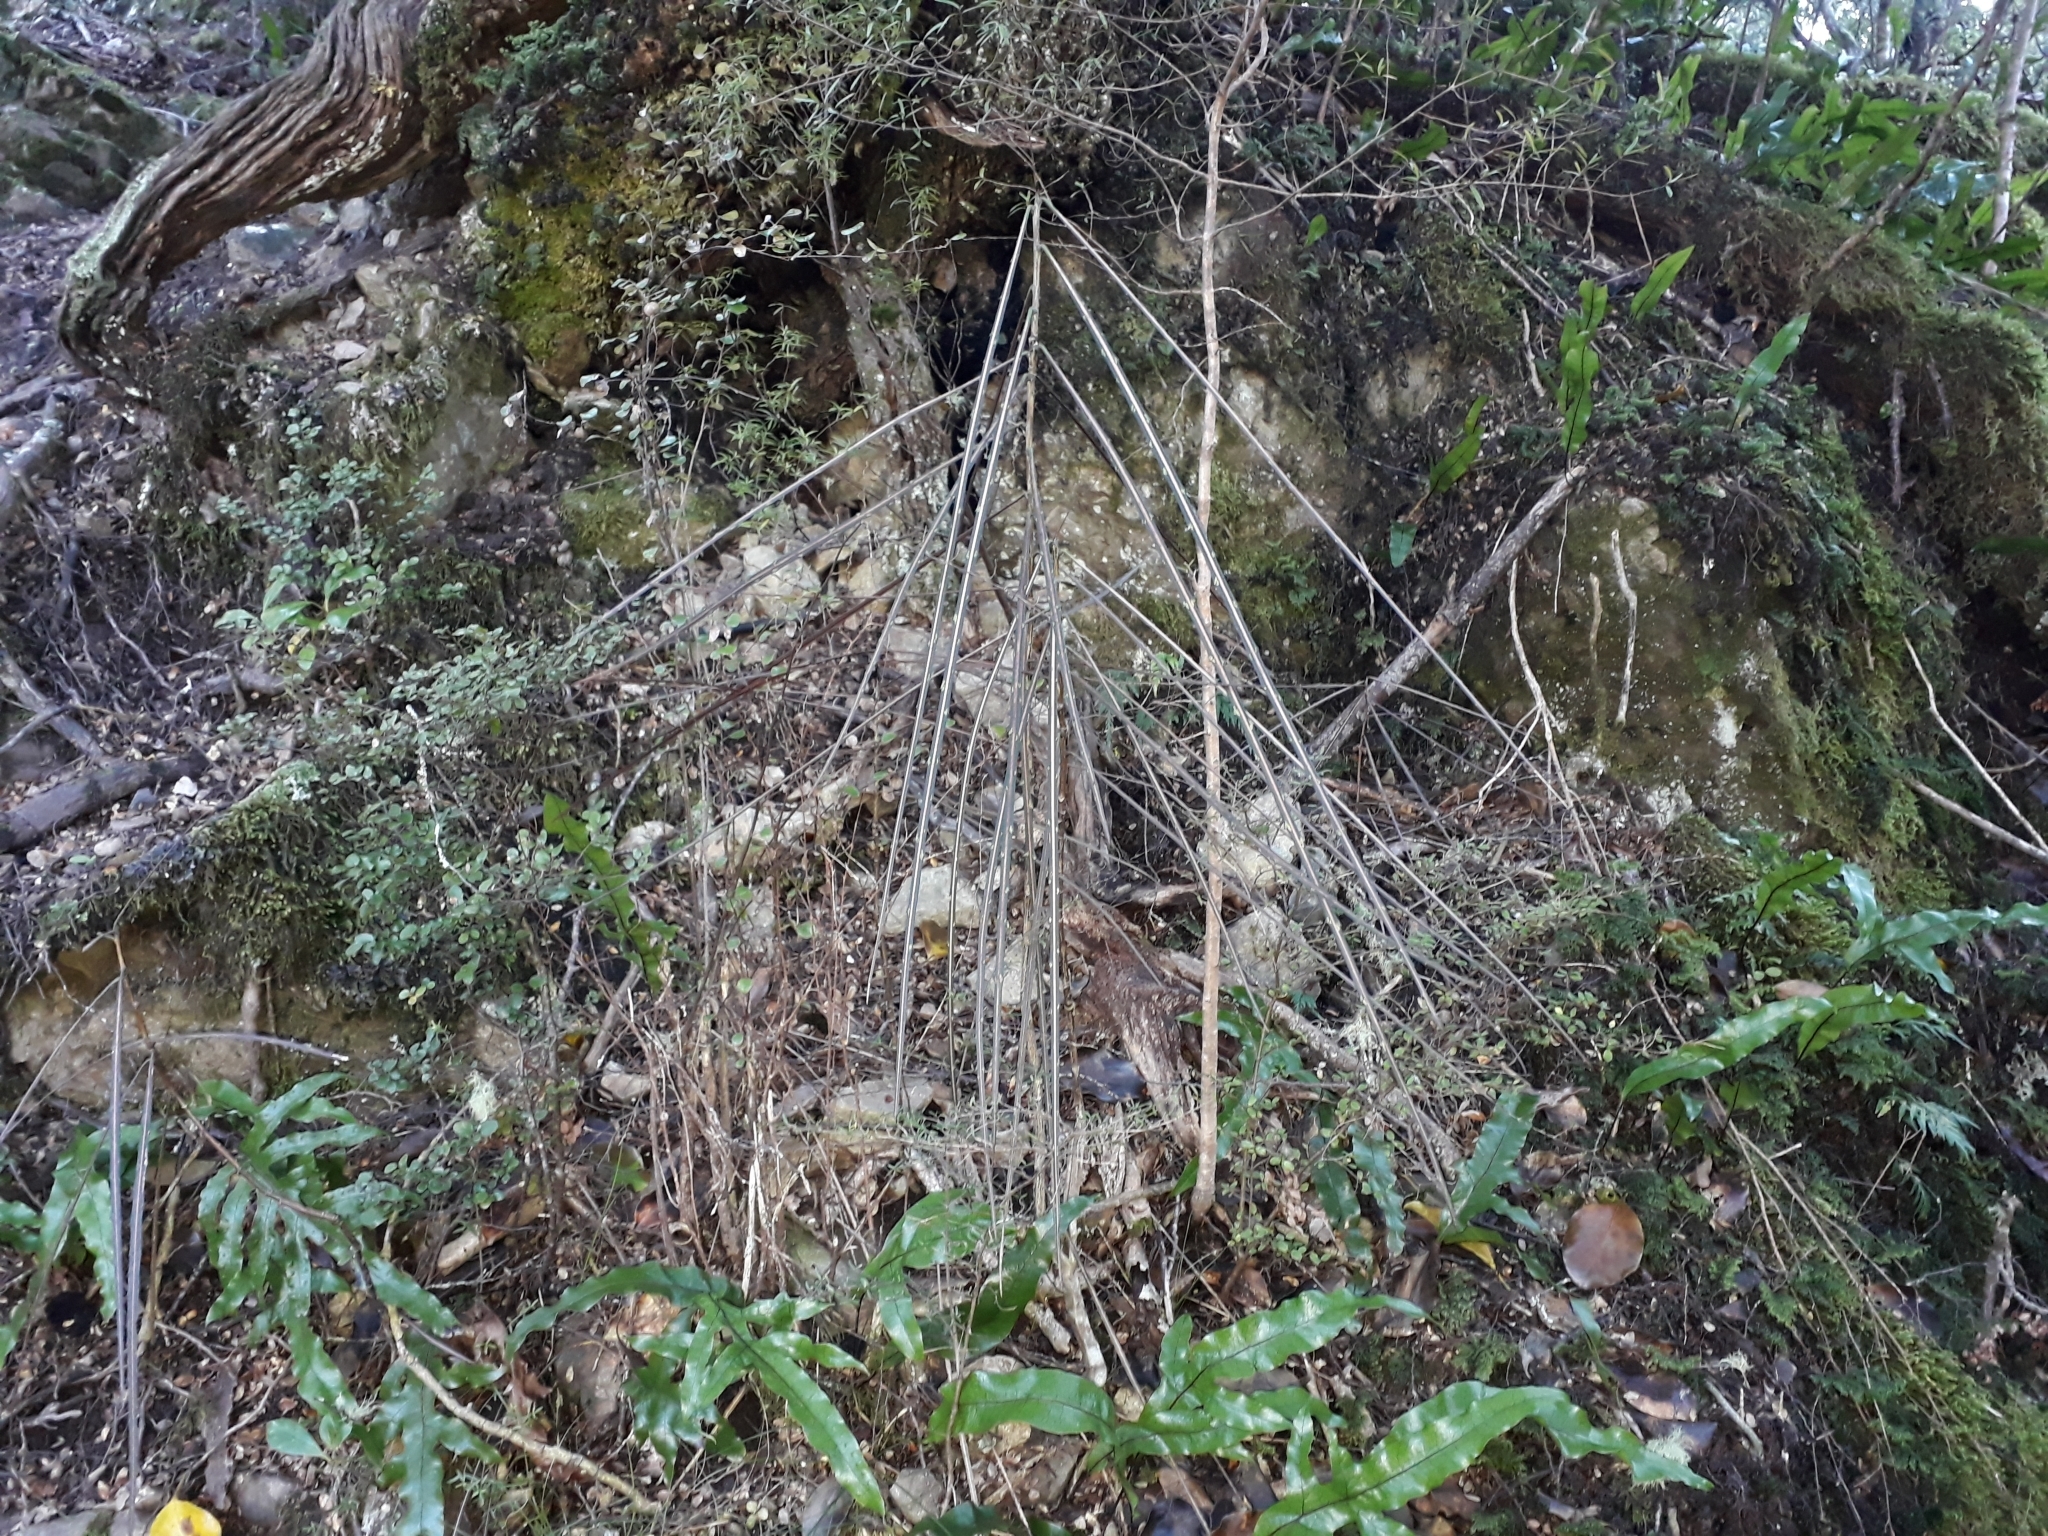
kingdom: Plantae
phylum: Tracheophyta
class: Magnoliopsida
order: Apiales
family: Araliaceae
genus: Pseudopanax
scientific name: Pseudopanax crassifolius
